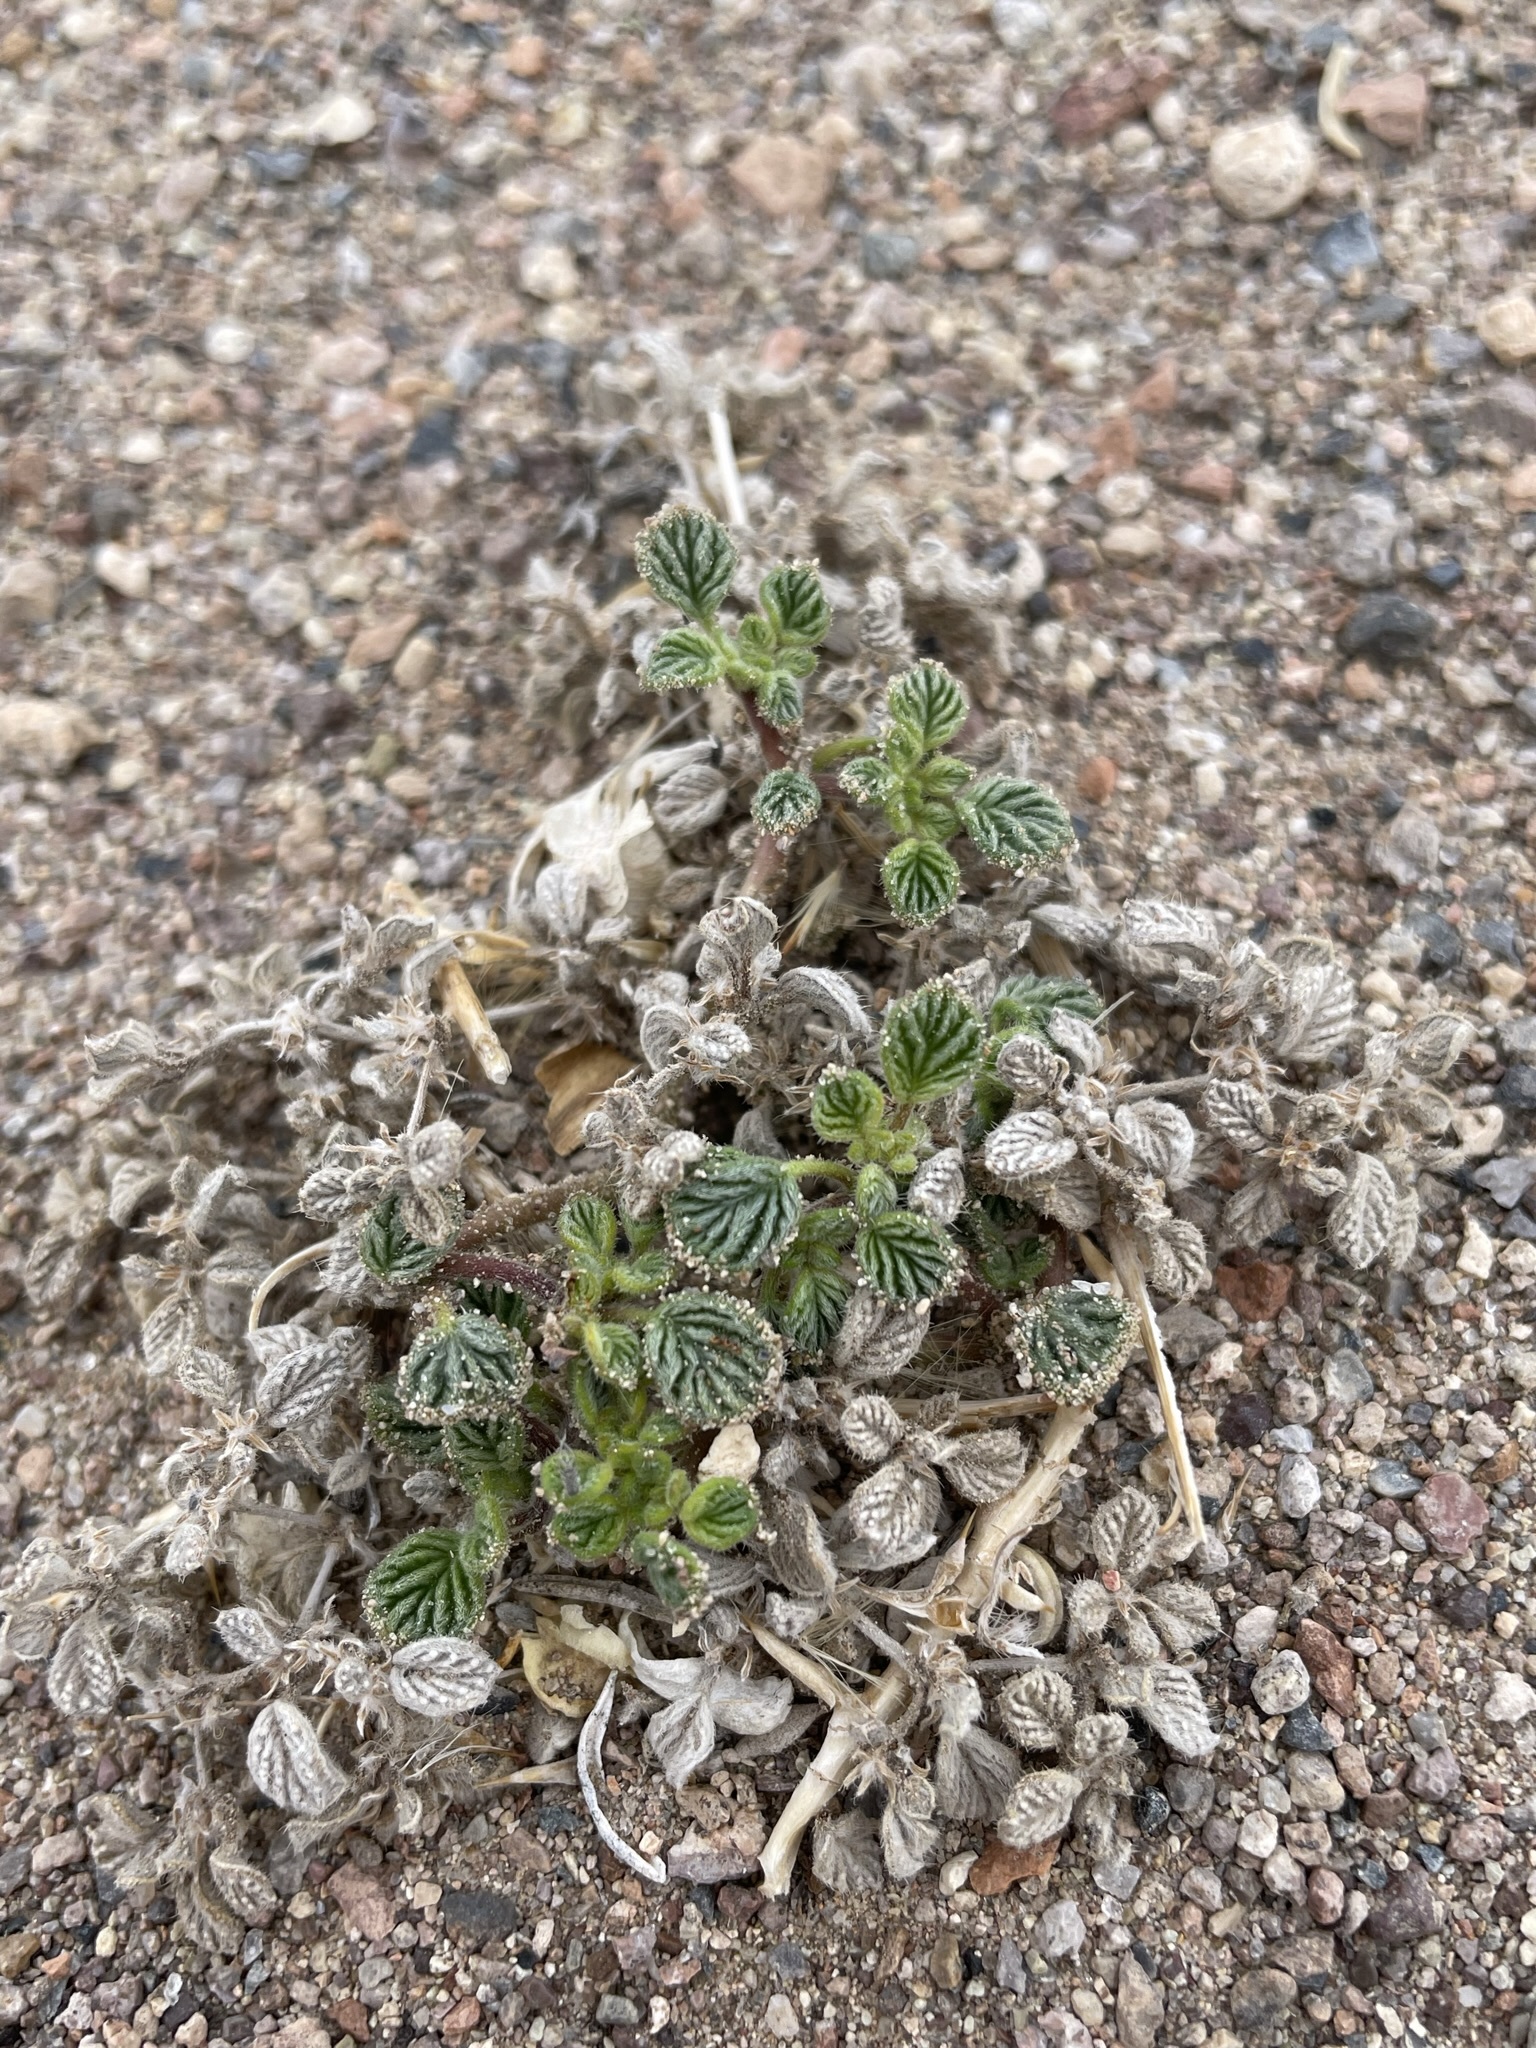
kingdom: Plantae
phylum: Tracheophyta
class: Magnoliopsida
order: Boraginales
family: Ehretiaceae
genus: Tiquilia
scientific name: Tiquilia plicata
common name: Fan-leaf tiquilia
